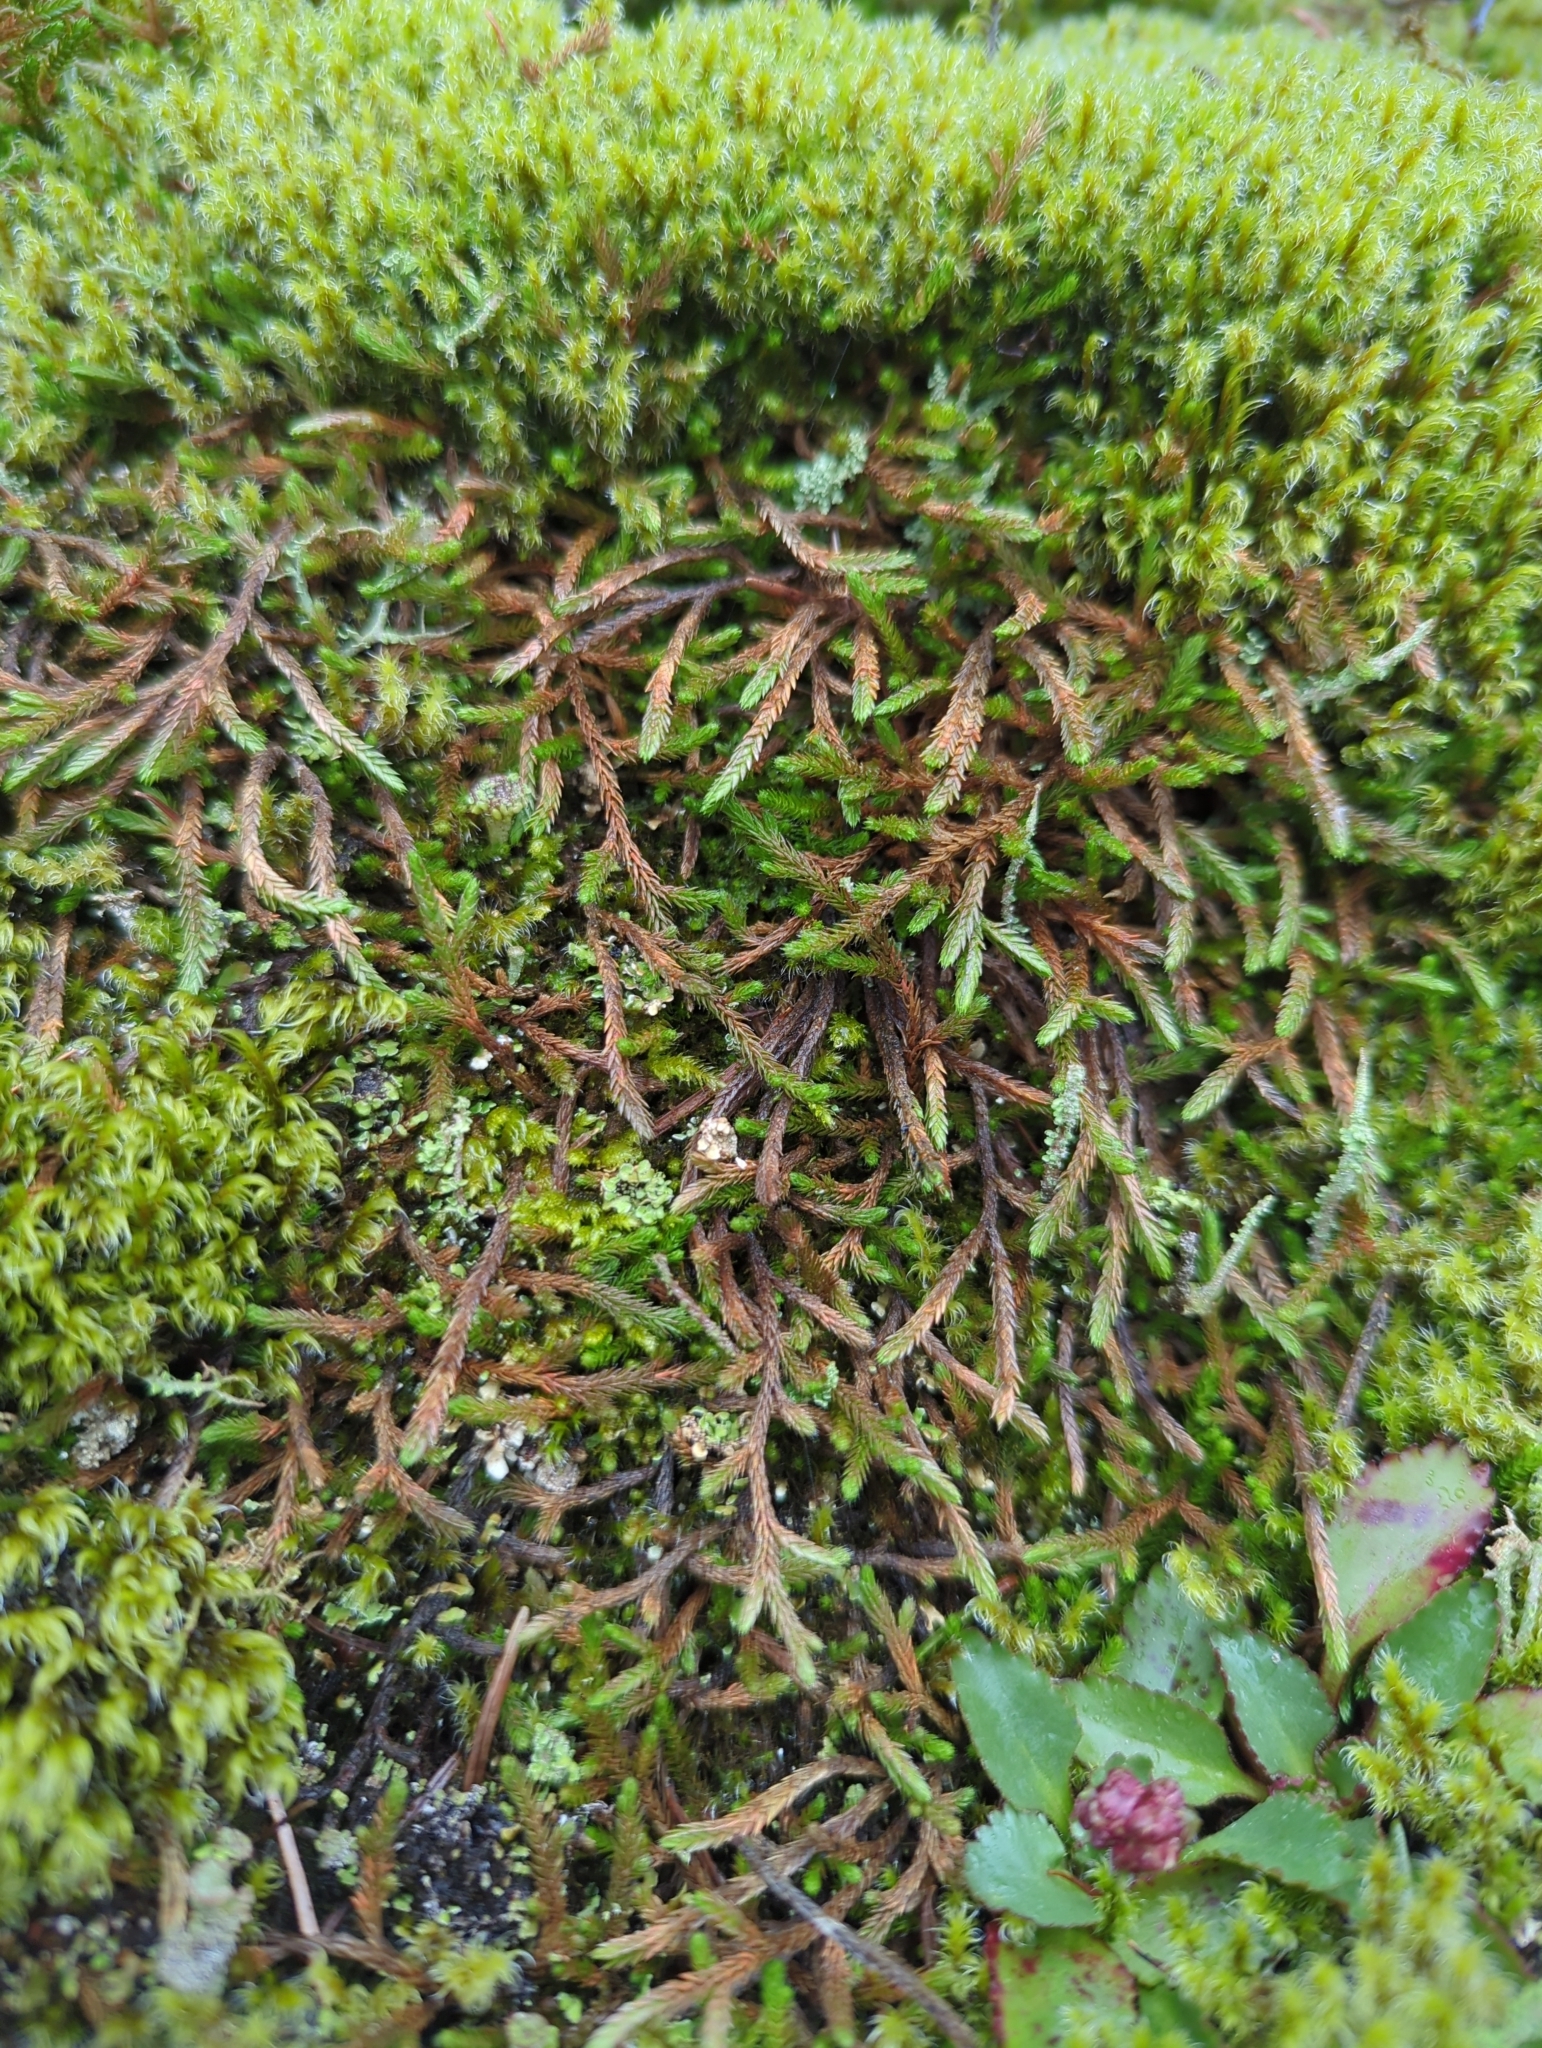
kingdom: Plantae
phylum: Tracheophyta
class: Lycopodiopsida
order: Selaginellales
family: Selaginellaceae
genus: Selaginella
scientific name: Selaginella wallacei
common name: Wallace's selaginella
